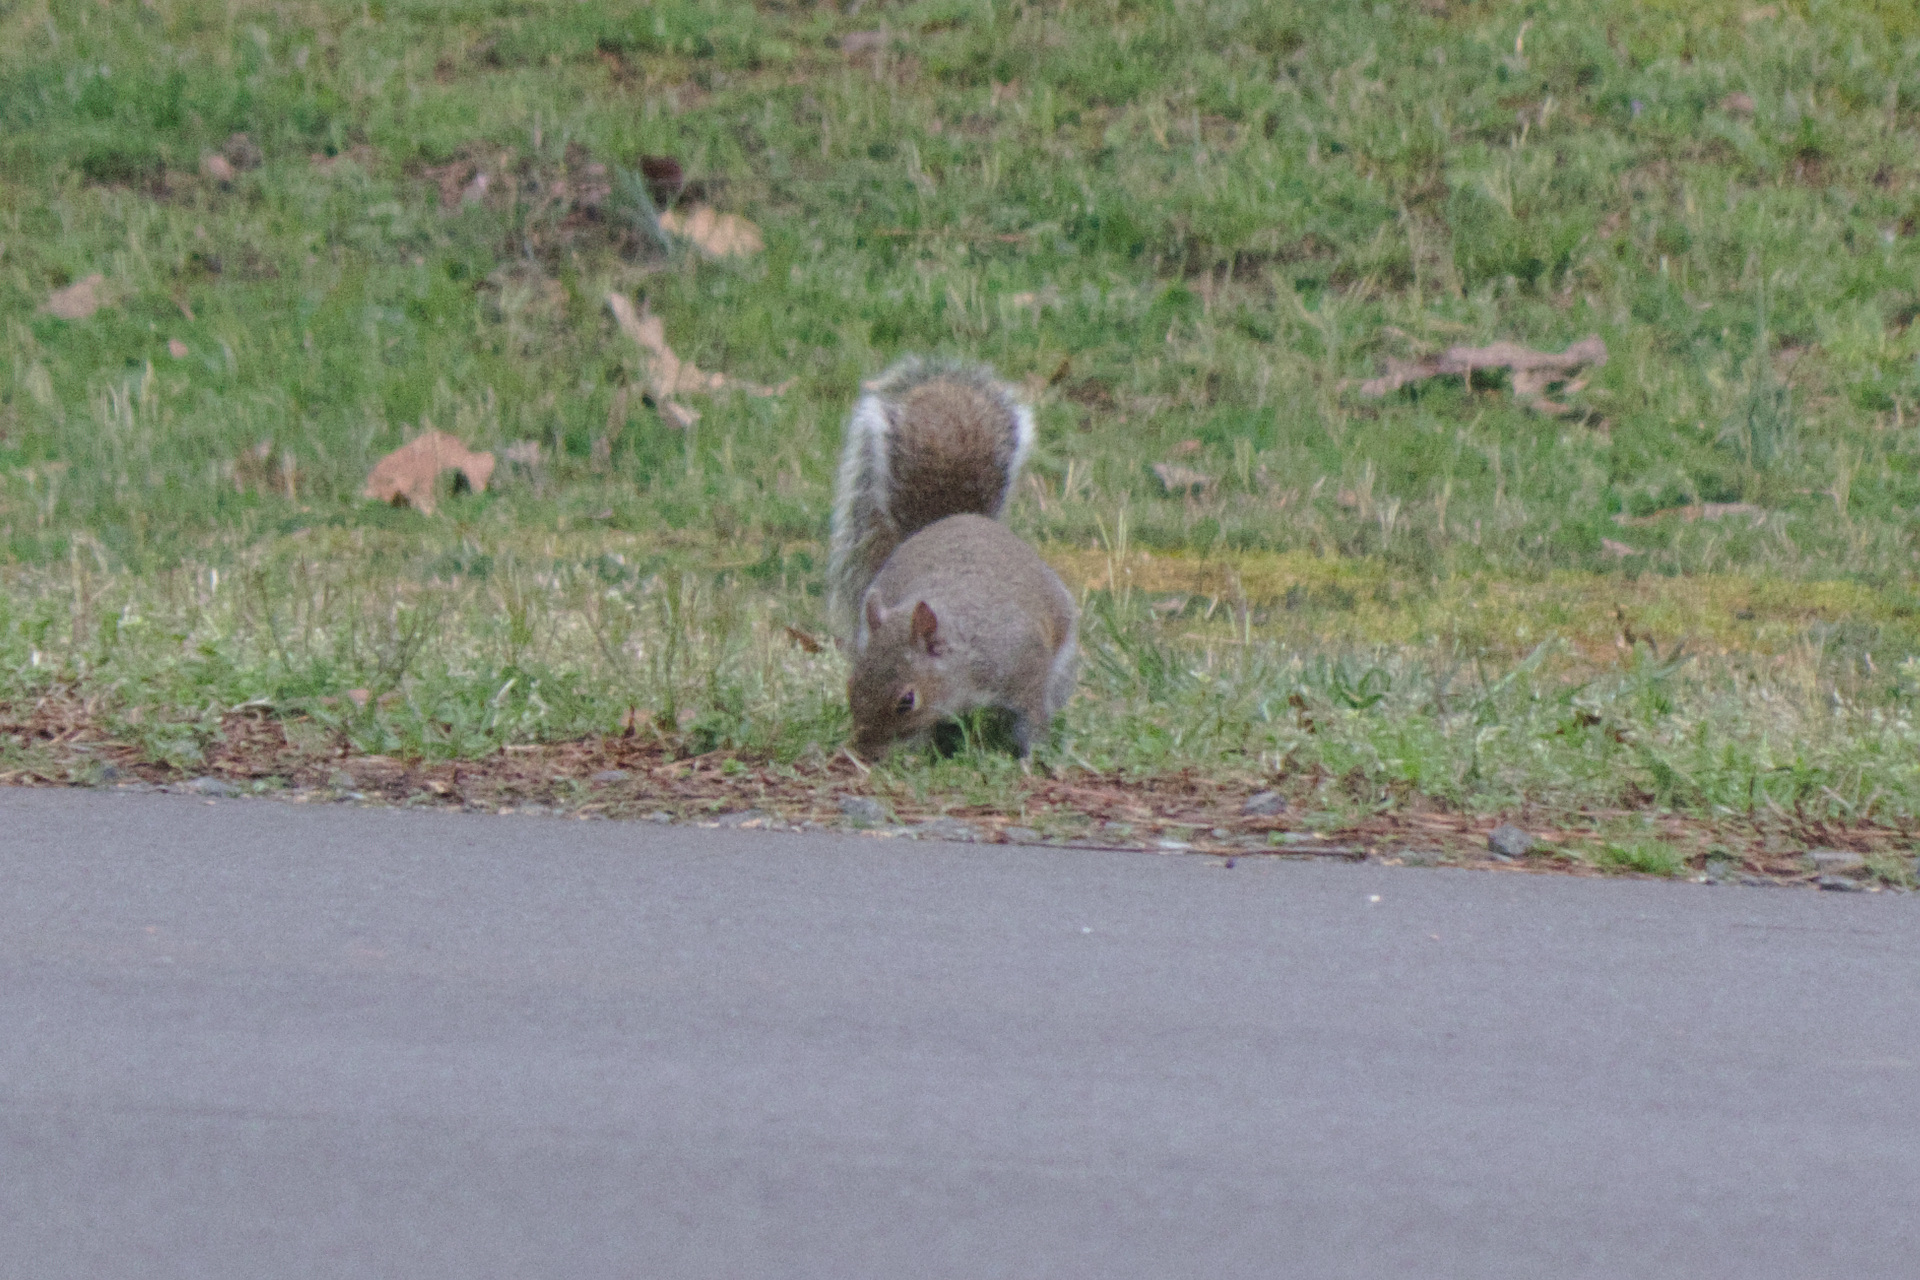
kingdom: Animalia
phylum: Chordata
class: Mammalia
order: Rodentia
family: Sciuridae
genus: Sciurus
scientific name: Sciurus carolinensis
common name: Eastern gray squirrel
